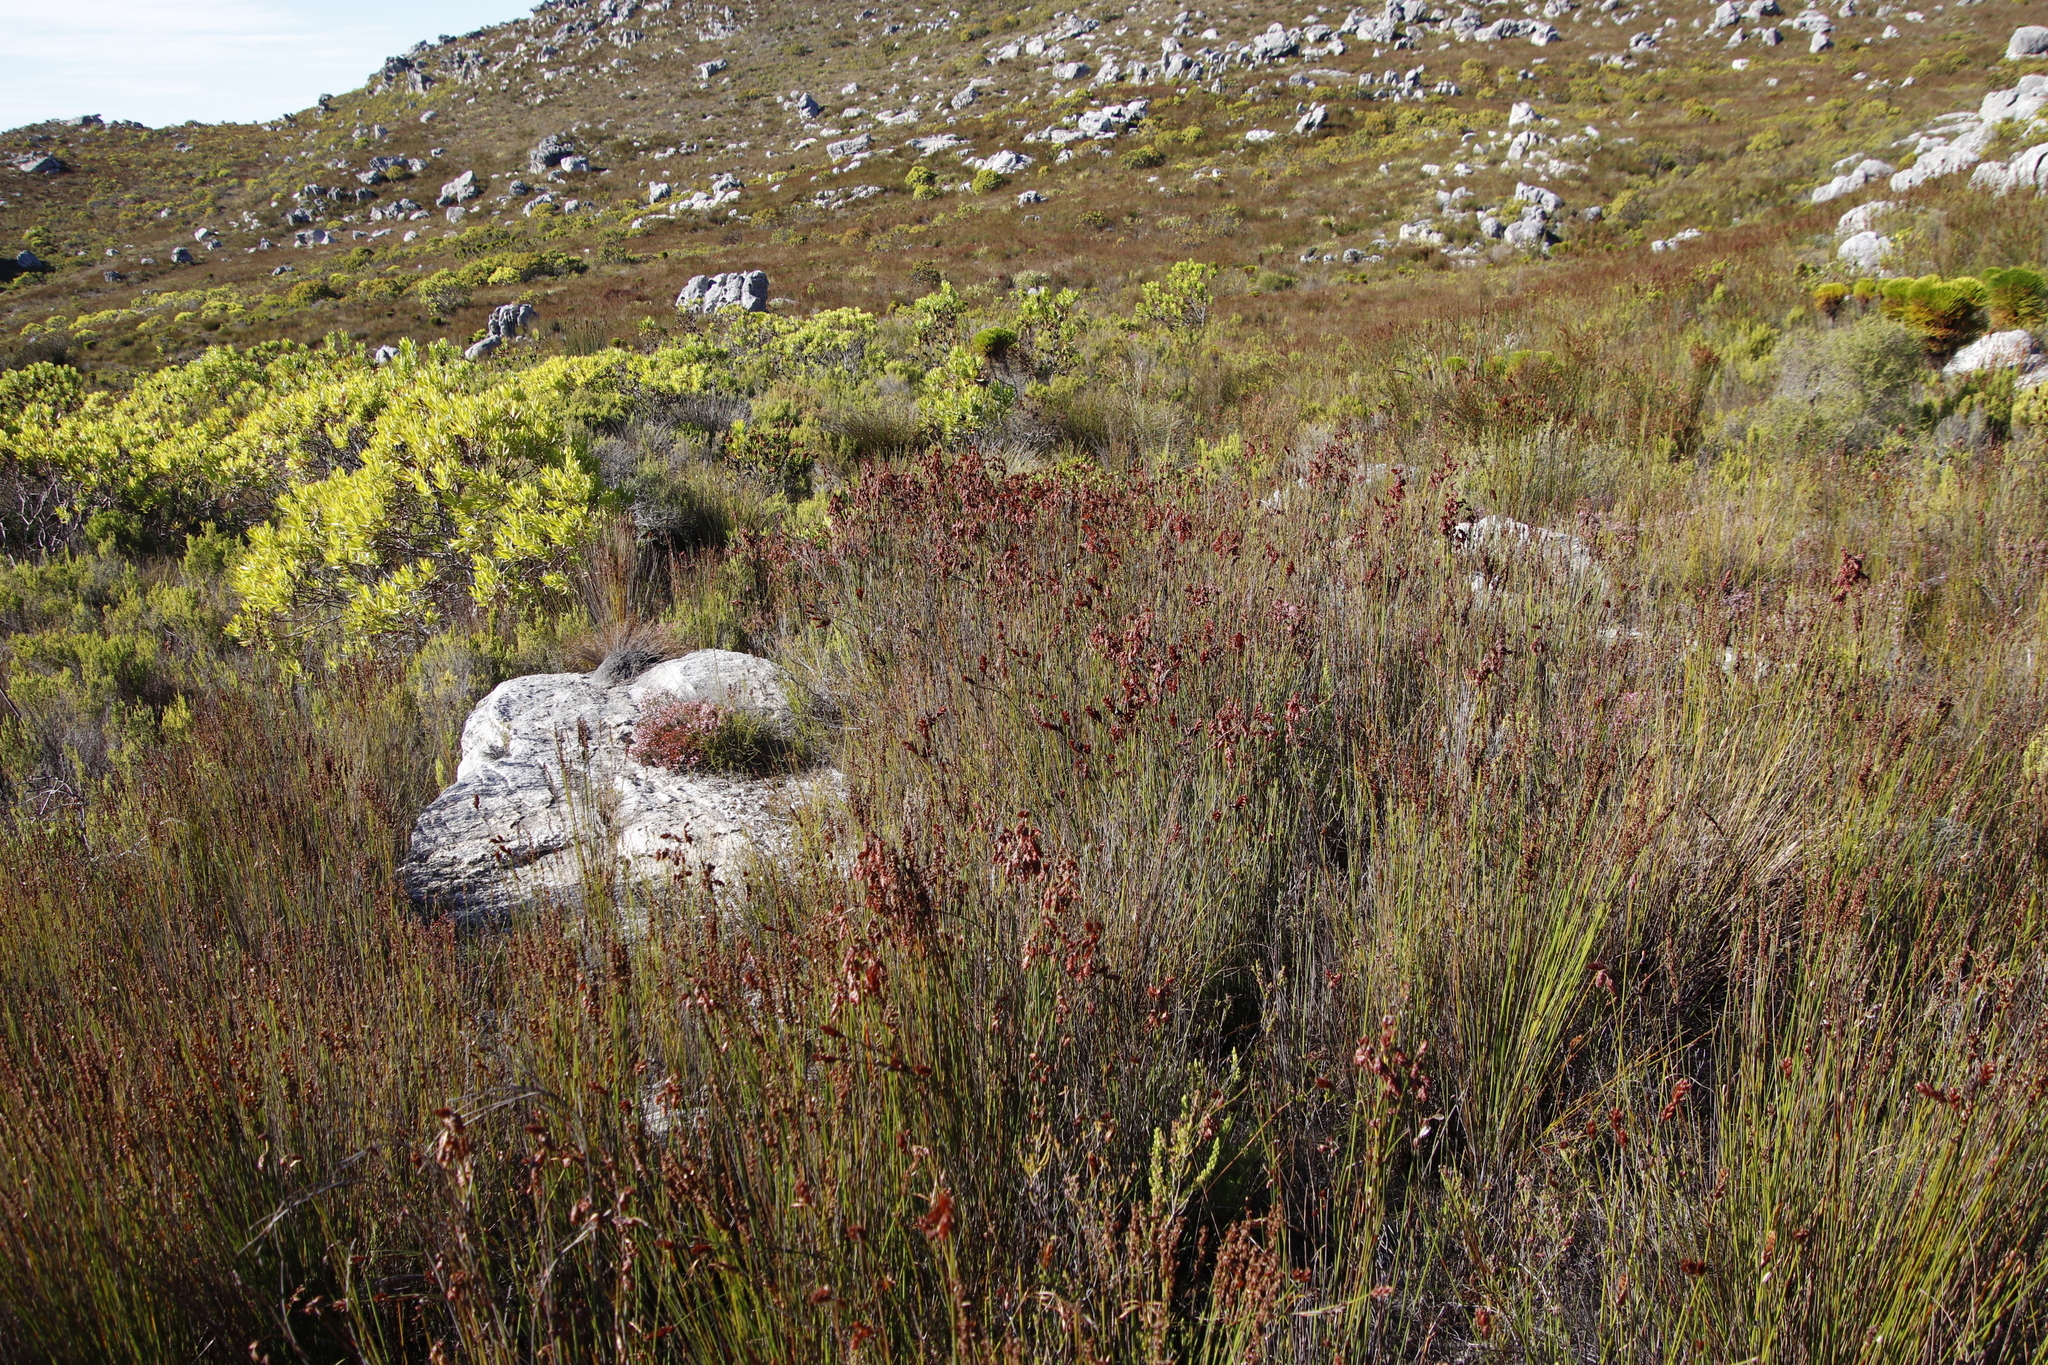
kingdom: Plantae
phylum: Tracheophyta
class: Liliopsida
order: Poales
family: Restionaceae
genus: Restio
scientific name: Restio bifarius
